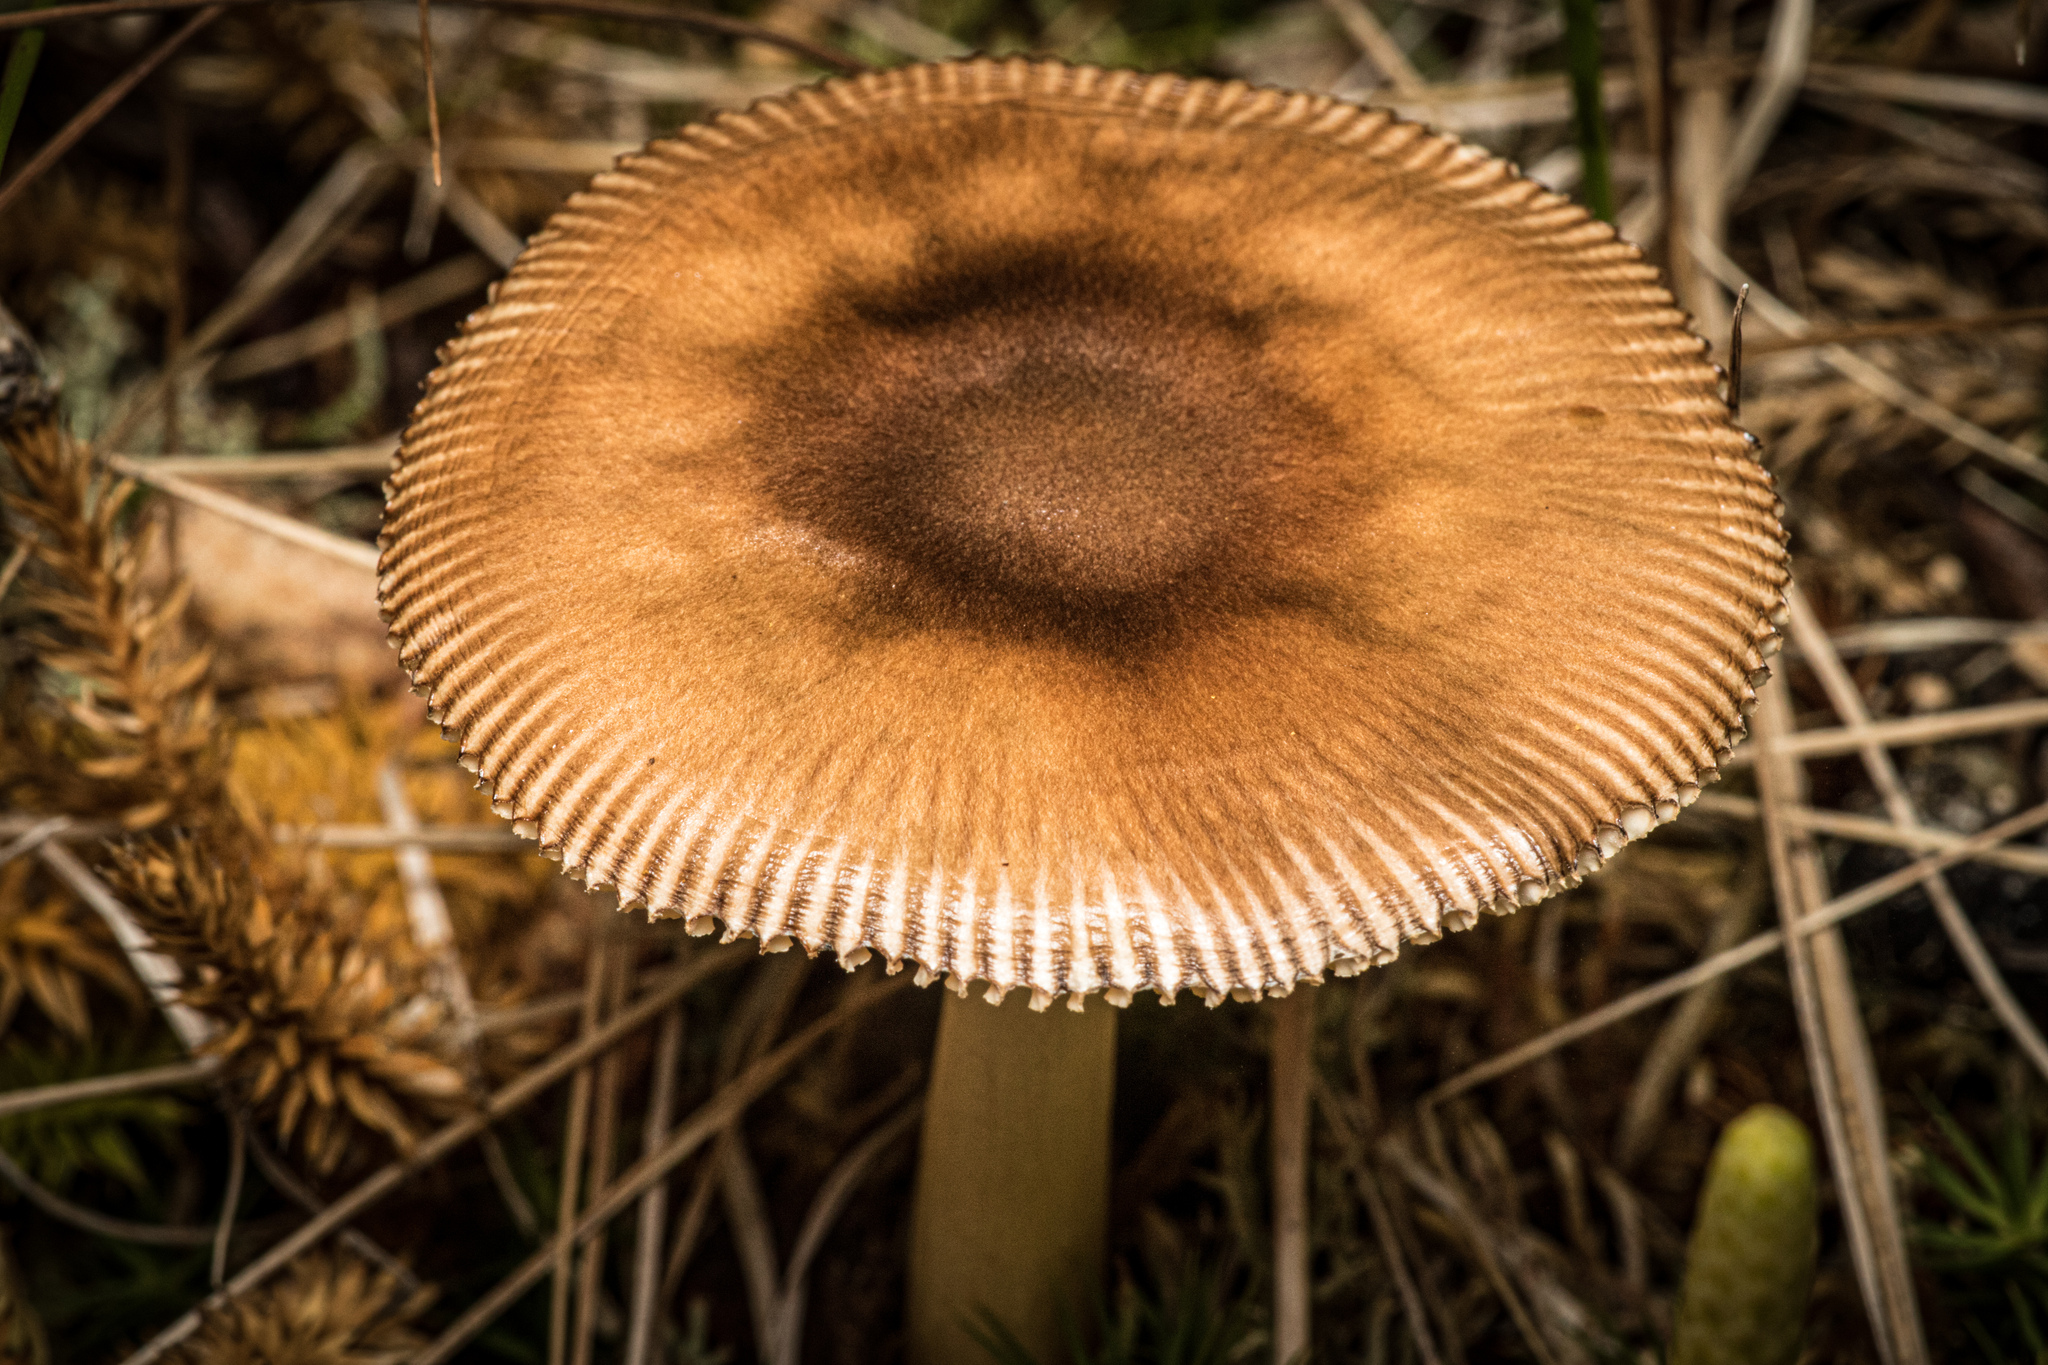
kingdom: Fungi
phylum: Basidiomycota
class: Agaricomycetes
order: Agaricales
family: Amanitaceae
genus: Amanita
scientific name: Amanita fulva
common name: Tawny grisette
